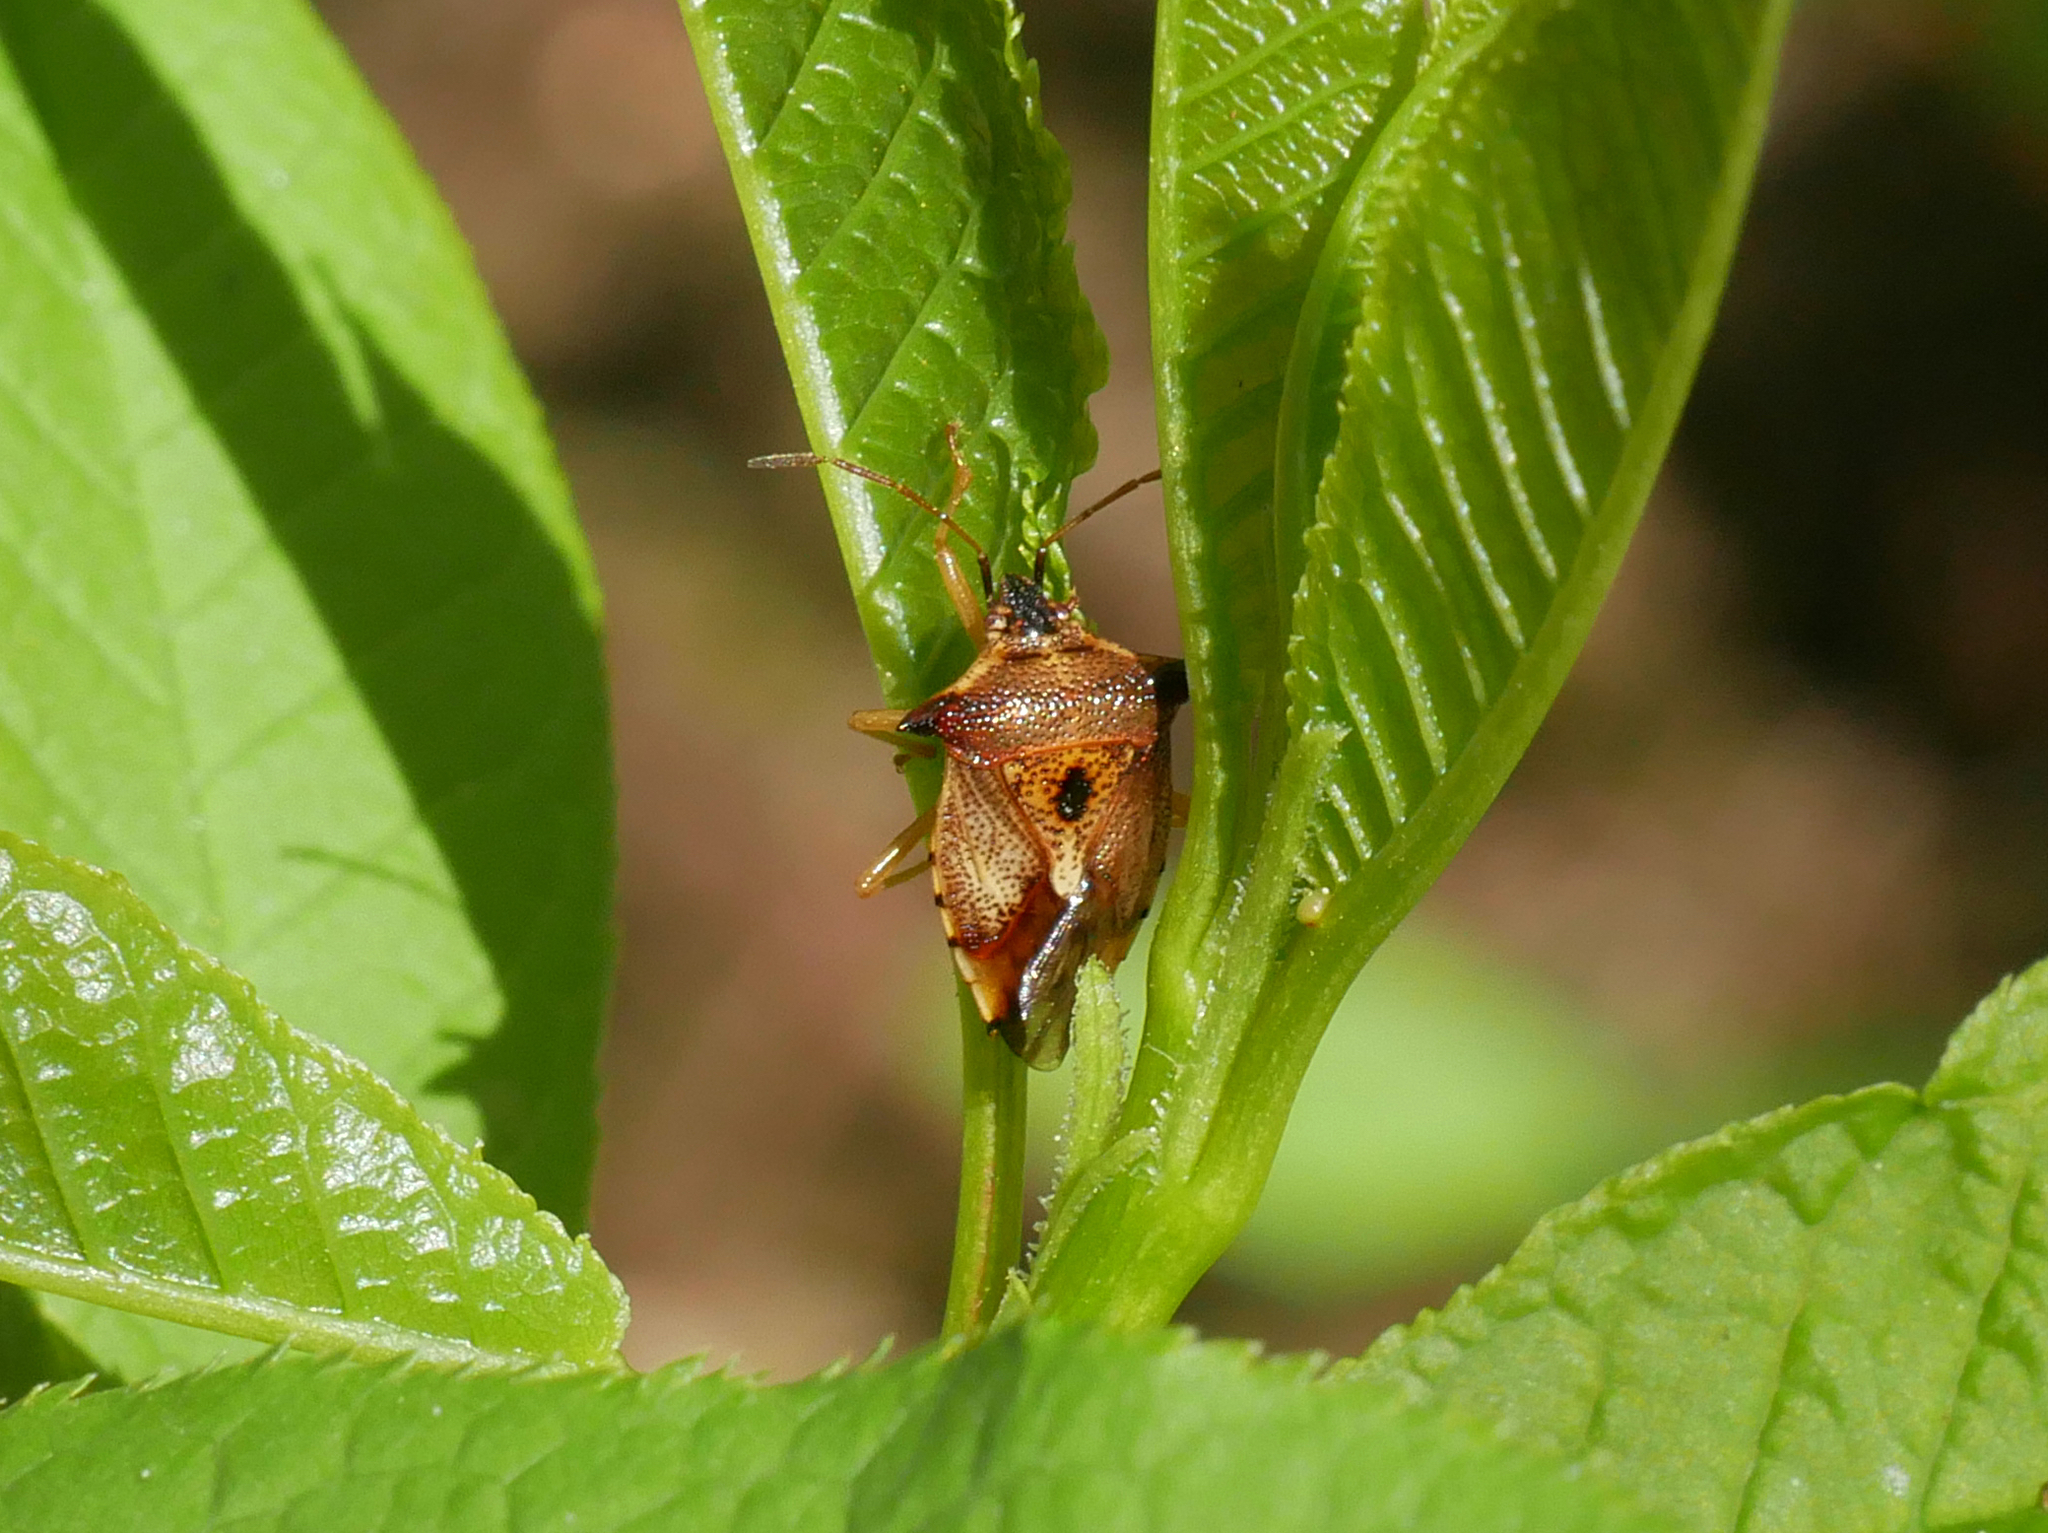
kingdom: Animalia
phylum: Arthropoda
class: Insecta
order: Hemiptera
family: Acanthosomatidae
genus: Elasmucha
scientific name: Elasmucha ferrugata
